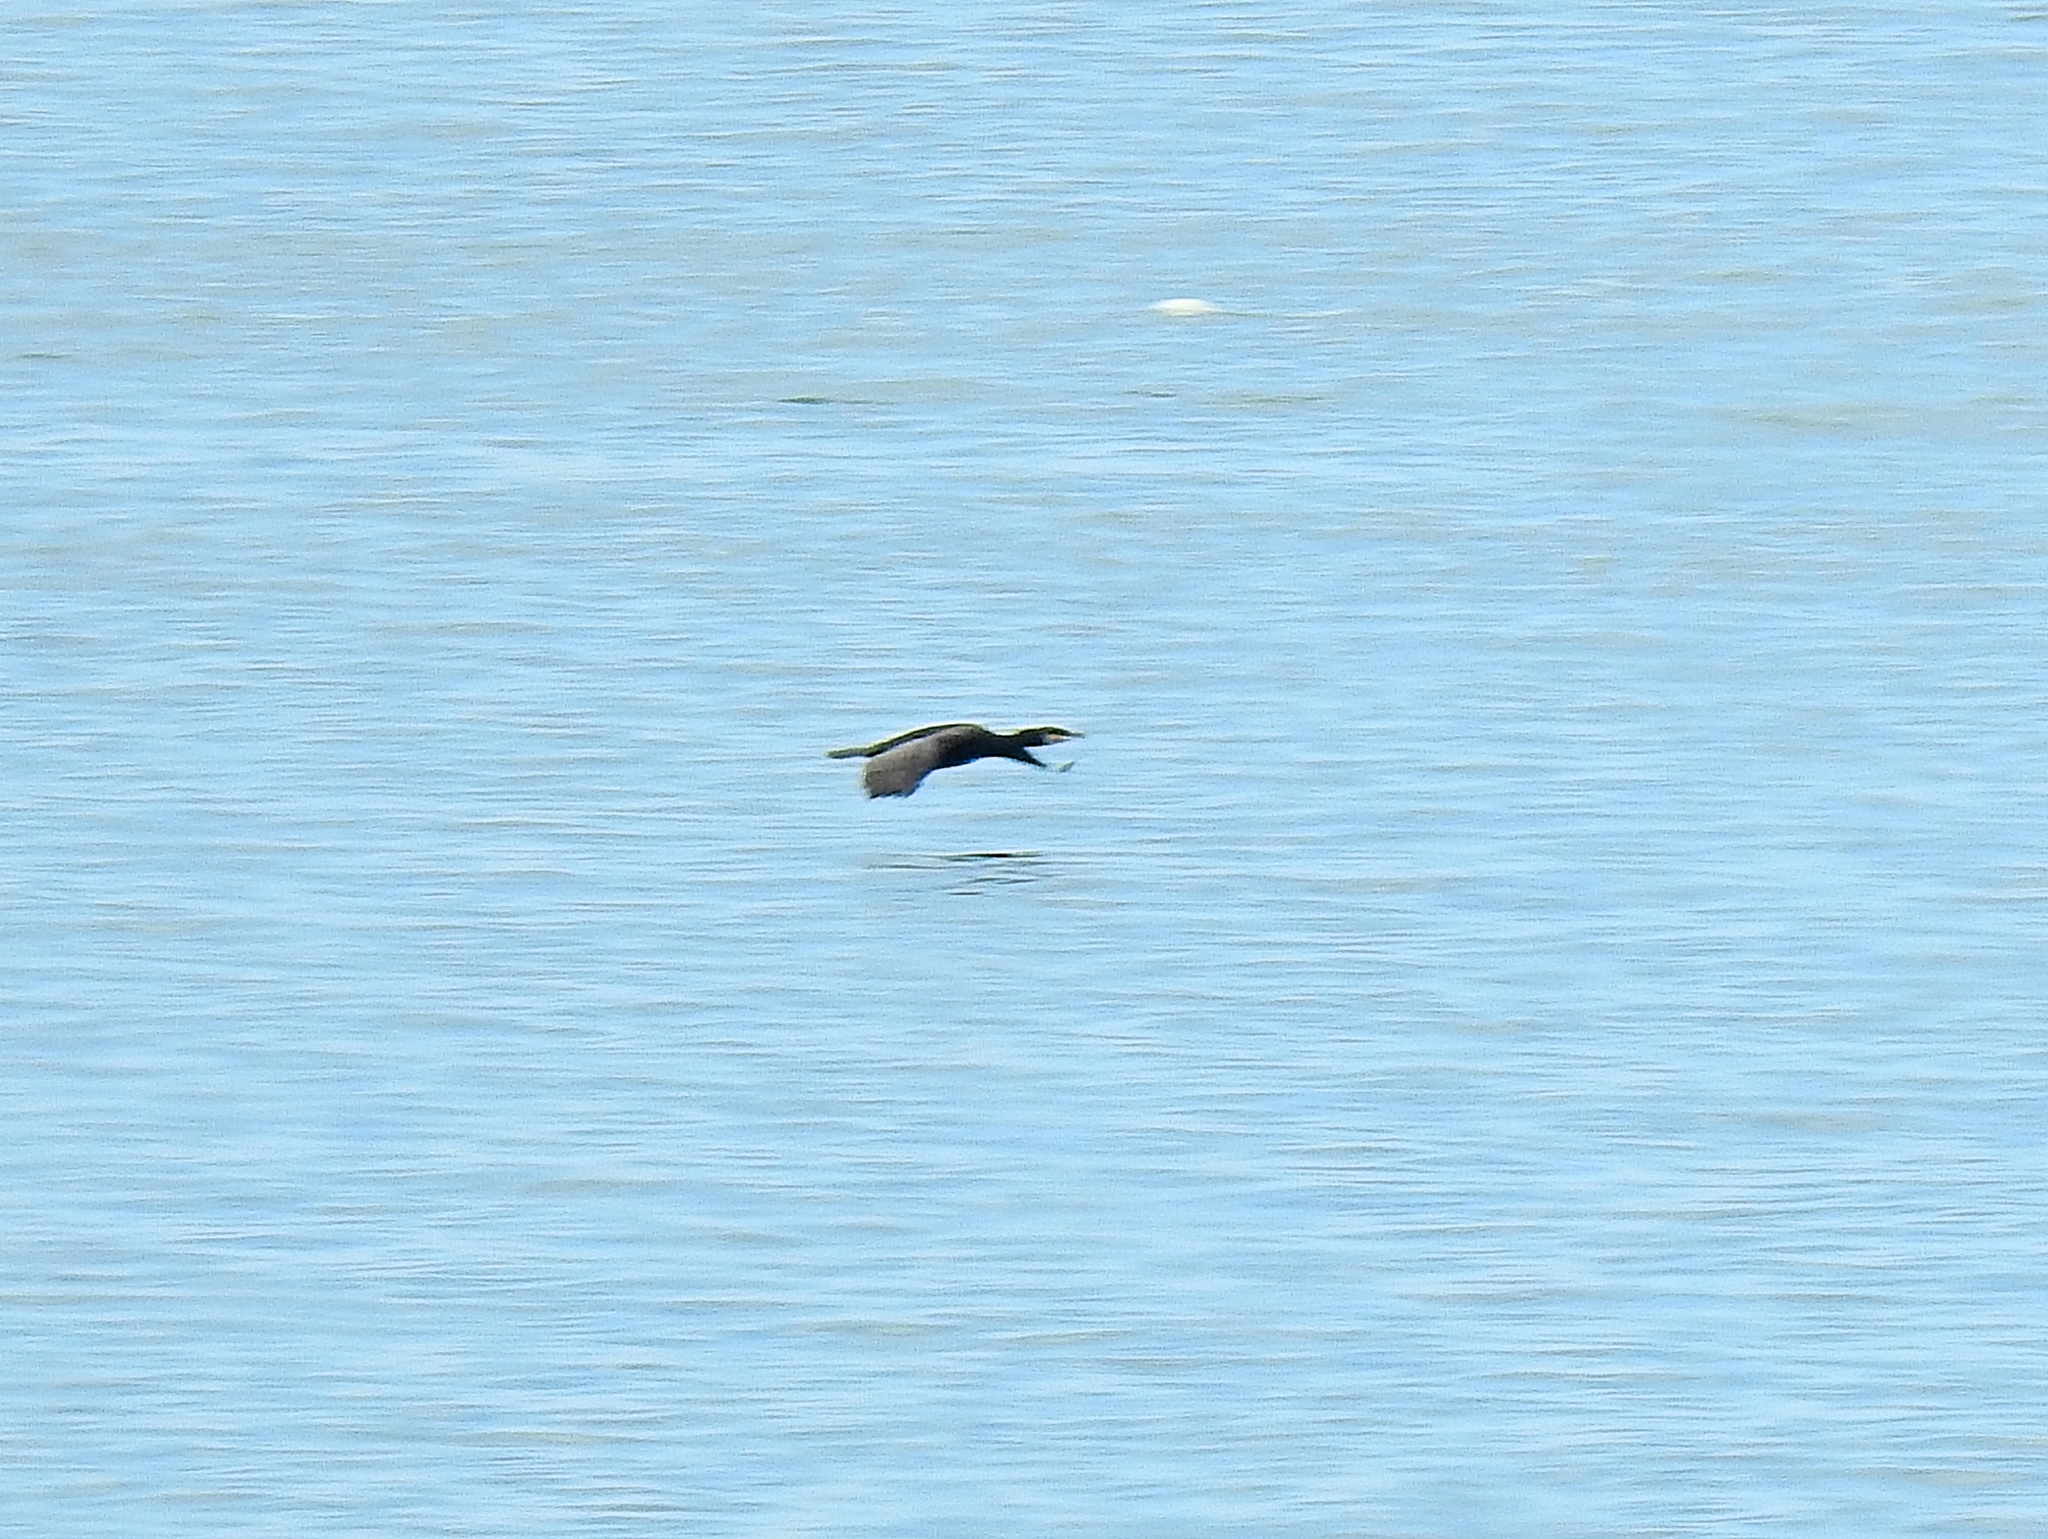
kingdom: Animalia
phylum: Chordata
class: Aves
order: Suliformes
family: Phalacrocoracidae
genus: Phalacrocorax
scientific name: Phalacrocorax carbo
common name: Great cormorant
